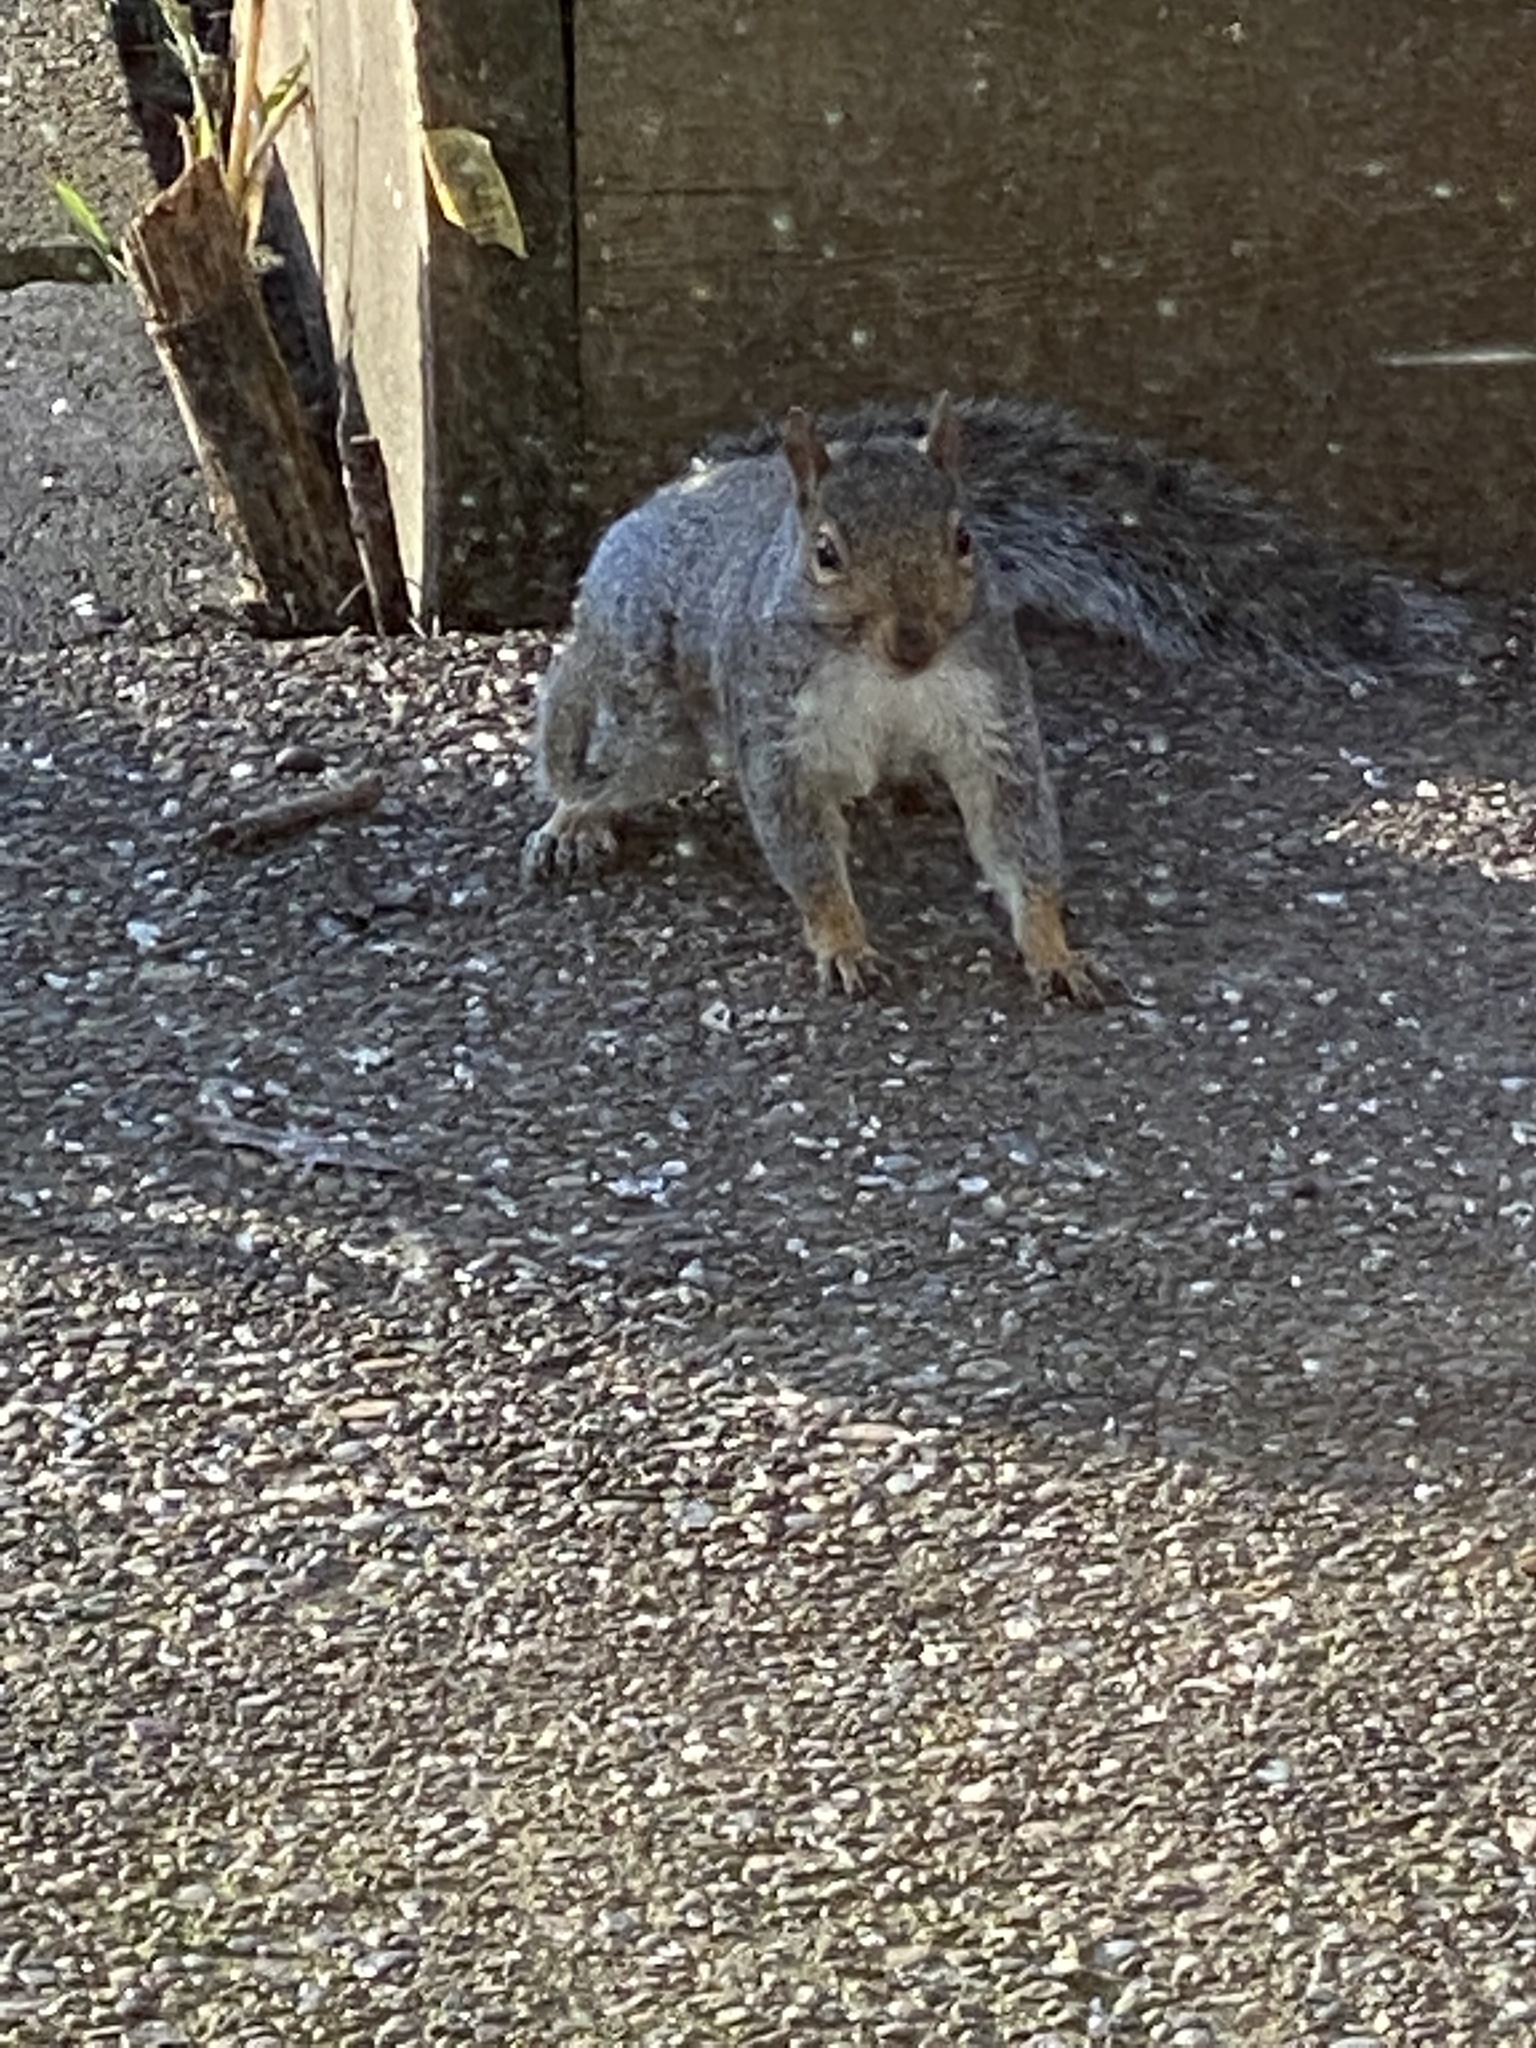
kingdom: Animalia
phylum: Chordata
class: Mammalia
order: Rodentia
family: Sciuridae
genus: Sciurus
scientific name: Sciurus carolinensis
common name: Eastern gray squirrel
